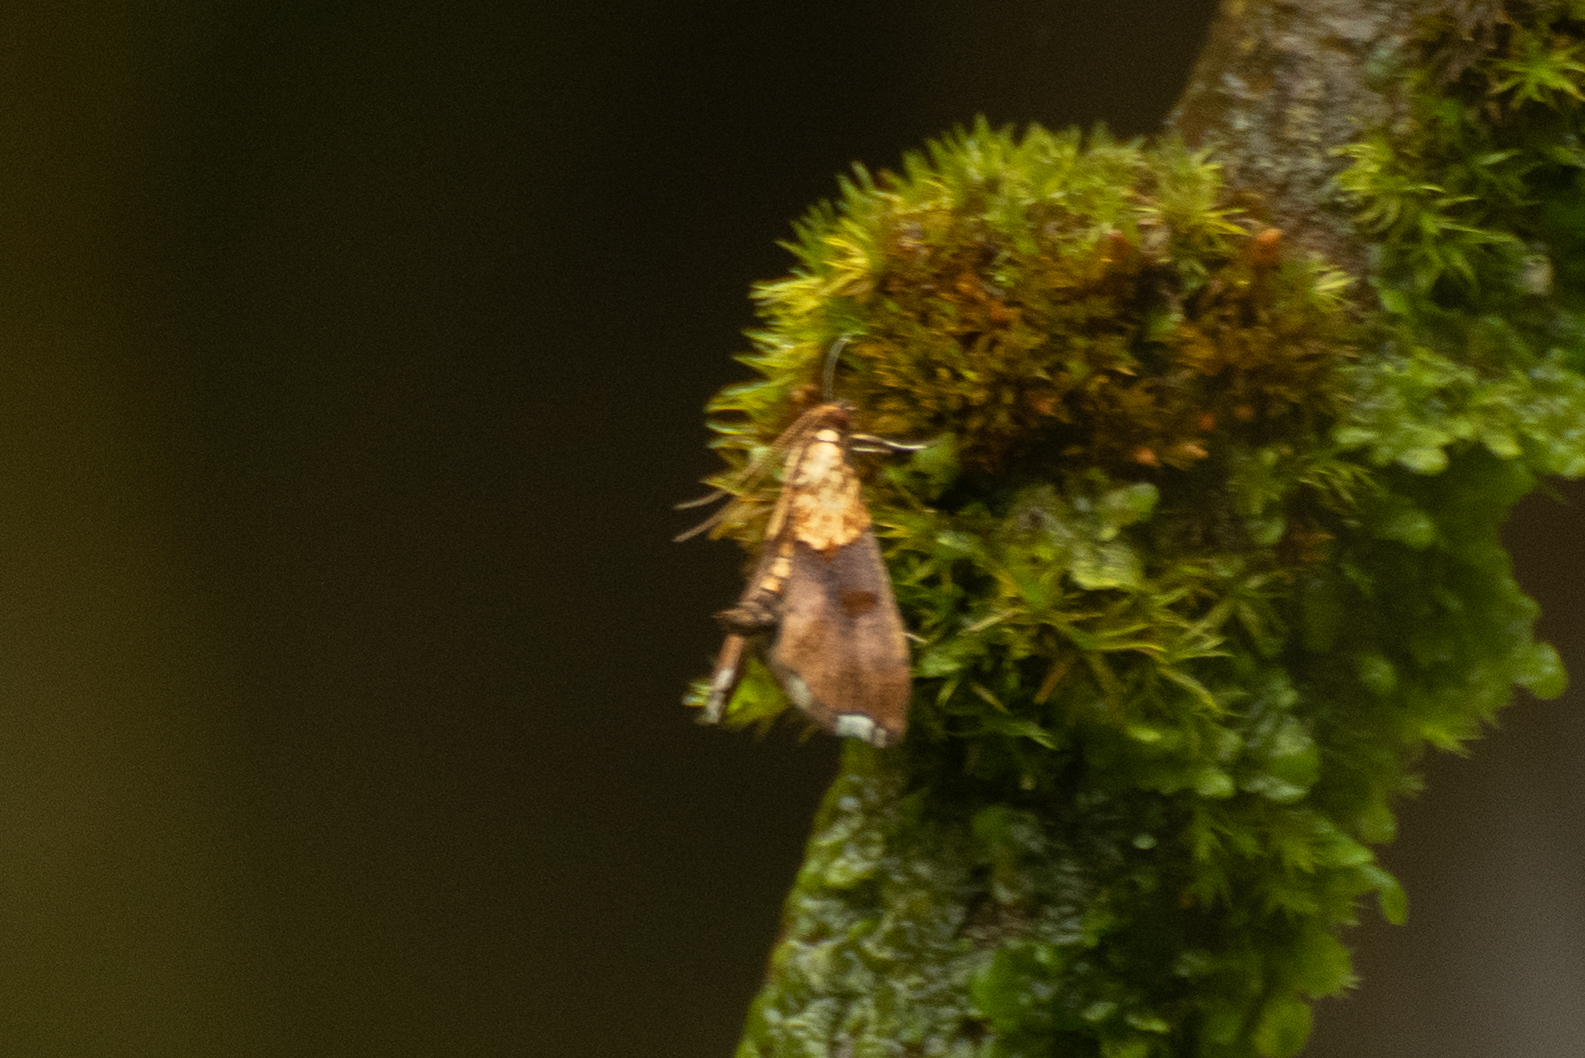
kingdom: Animalia
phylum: Arthropoda
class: Insecta
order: Lepidoptera
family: Crambidae
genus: Agrotera
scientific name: Agrotera nemoralis
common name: Beautiful pearl
